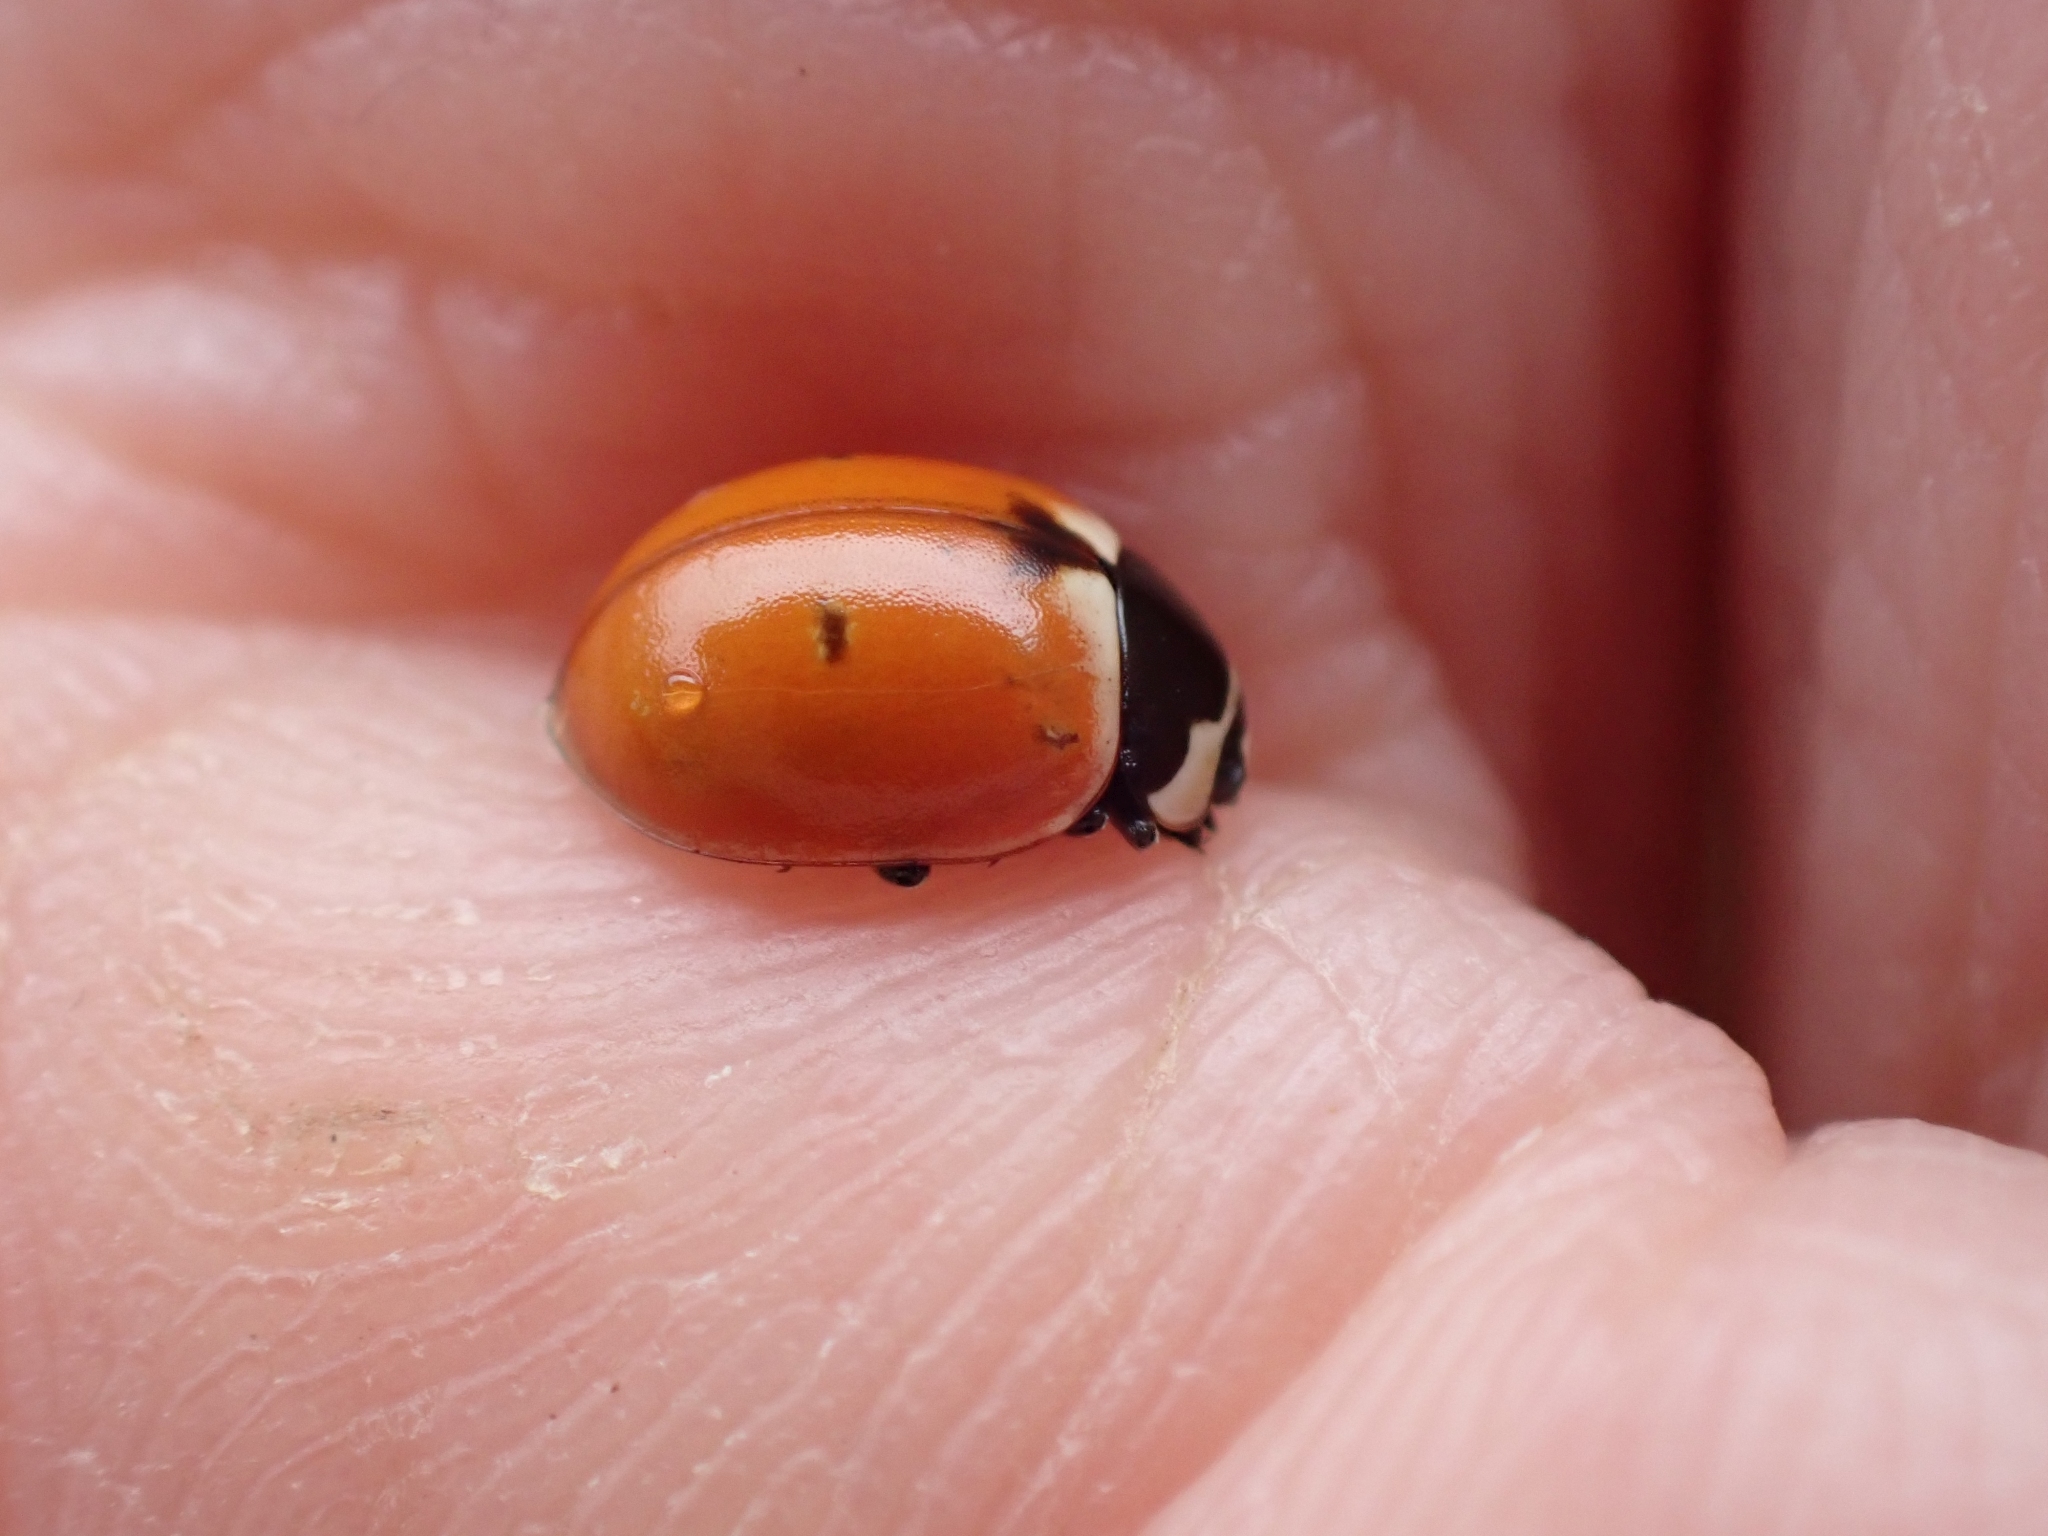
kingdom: Animalia
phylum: Arthropoda
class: Insecta
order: Coleoptera
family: Coccinellidae
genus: Coccinella
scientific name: Coccinella trifasciata
